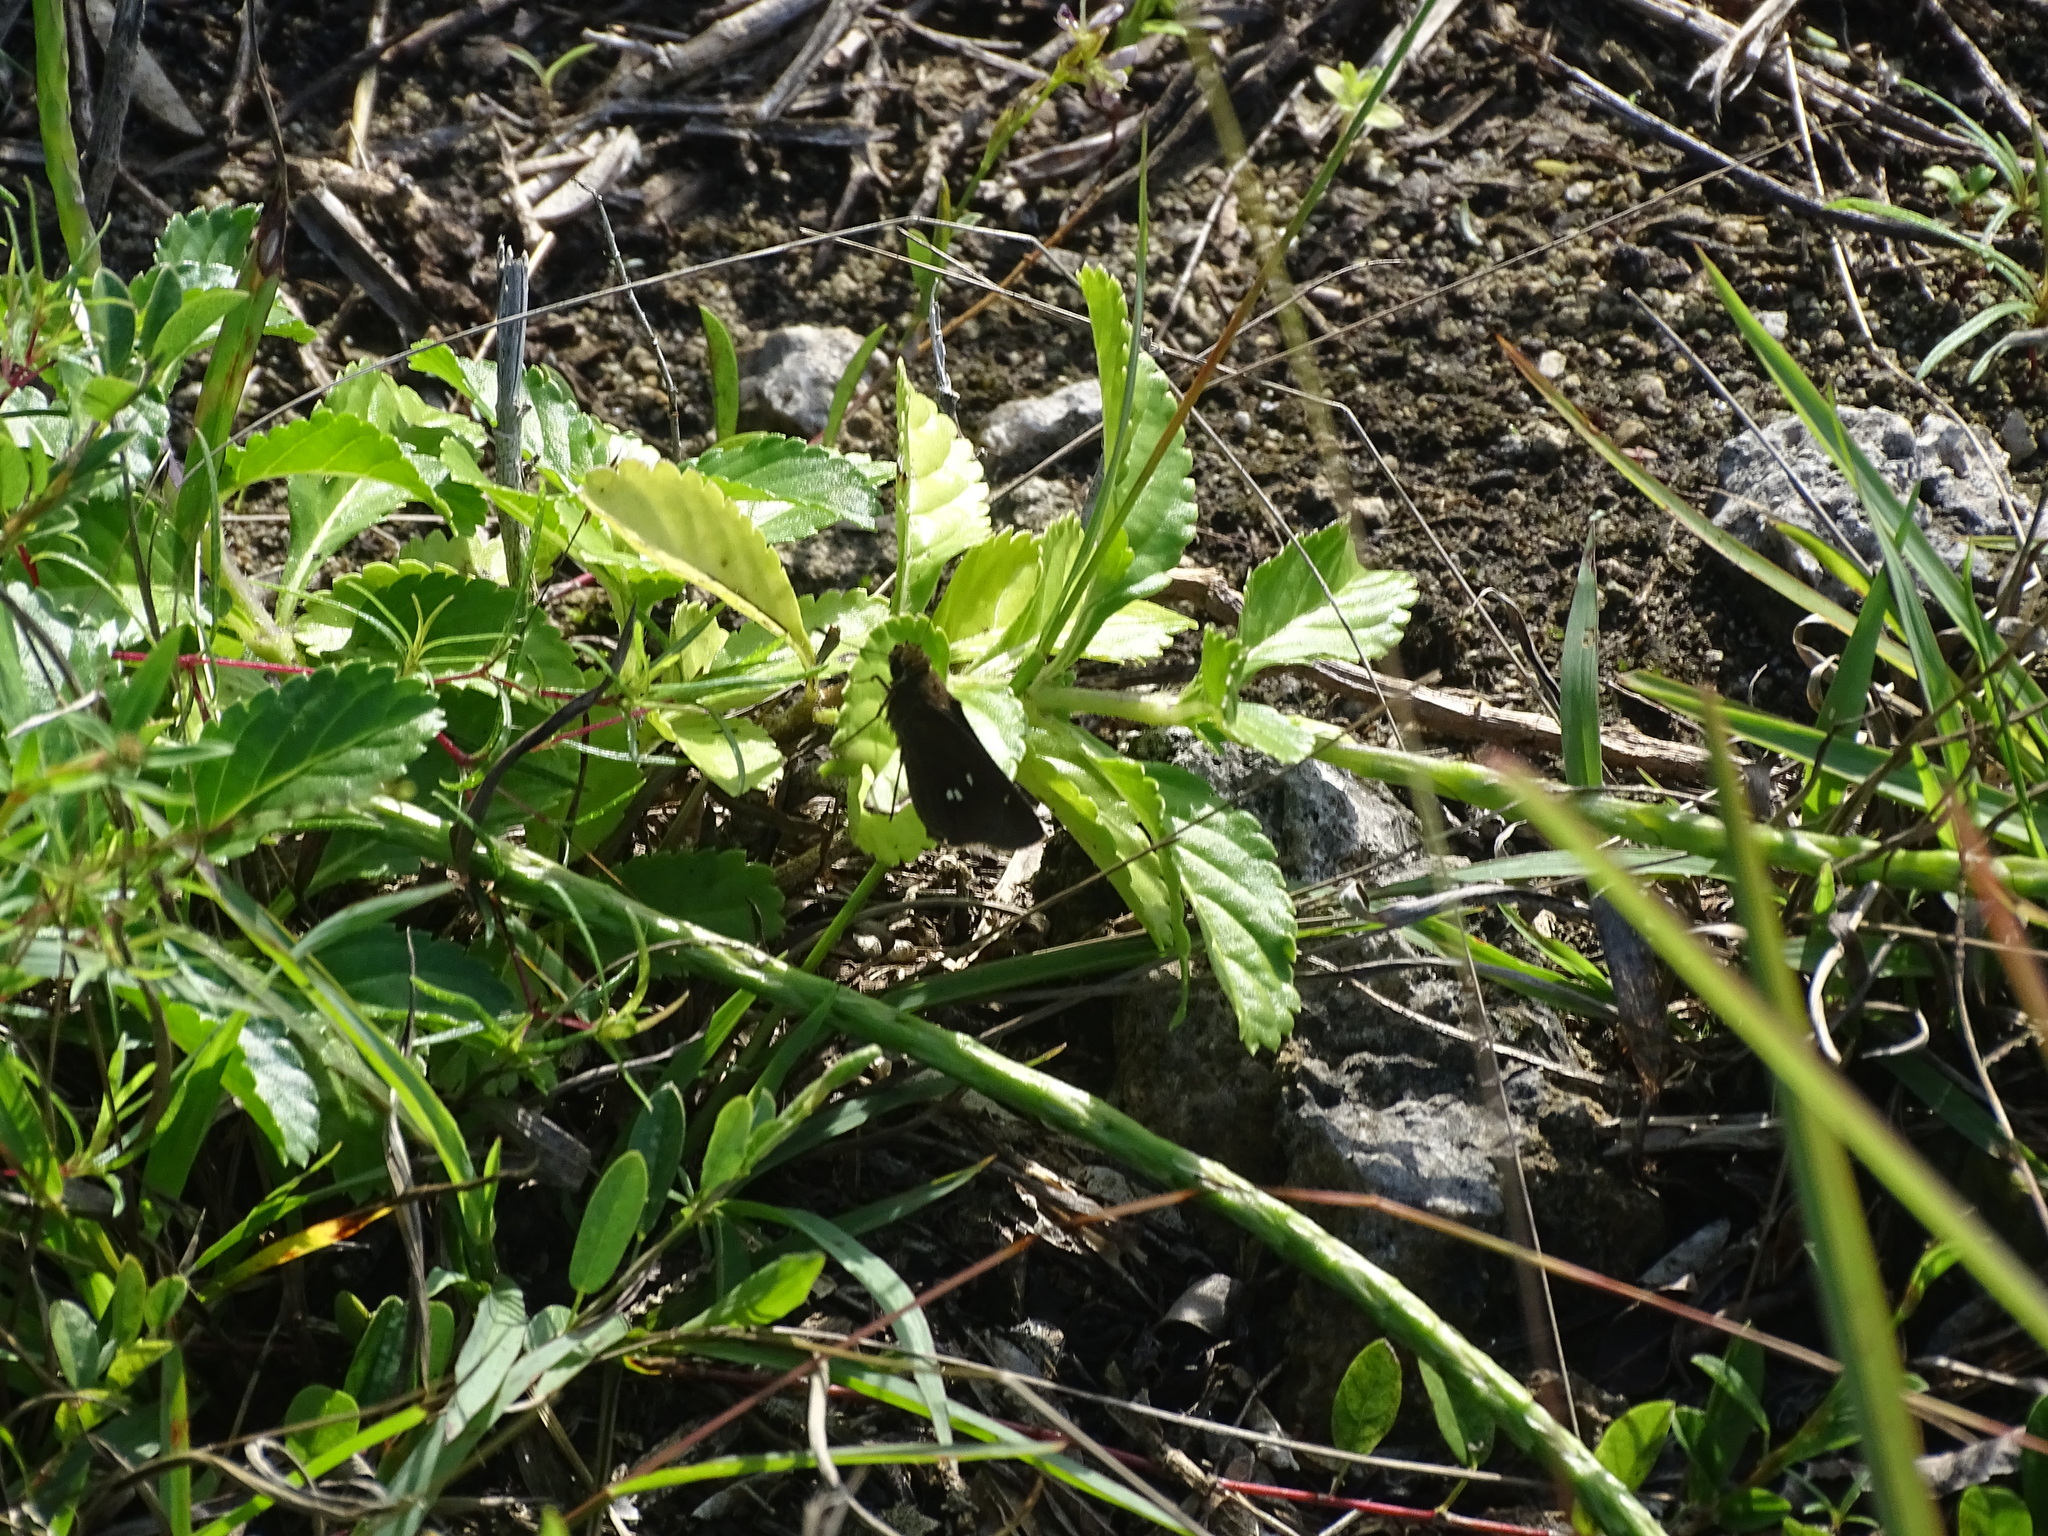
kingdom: Animalia
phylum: Arthropoda
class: Insecta
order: Lepidoptera
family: Hesperiidae
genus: Oligoria
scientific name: Oligoria maculata
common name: Twin-spot skipper
